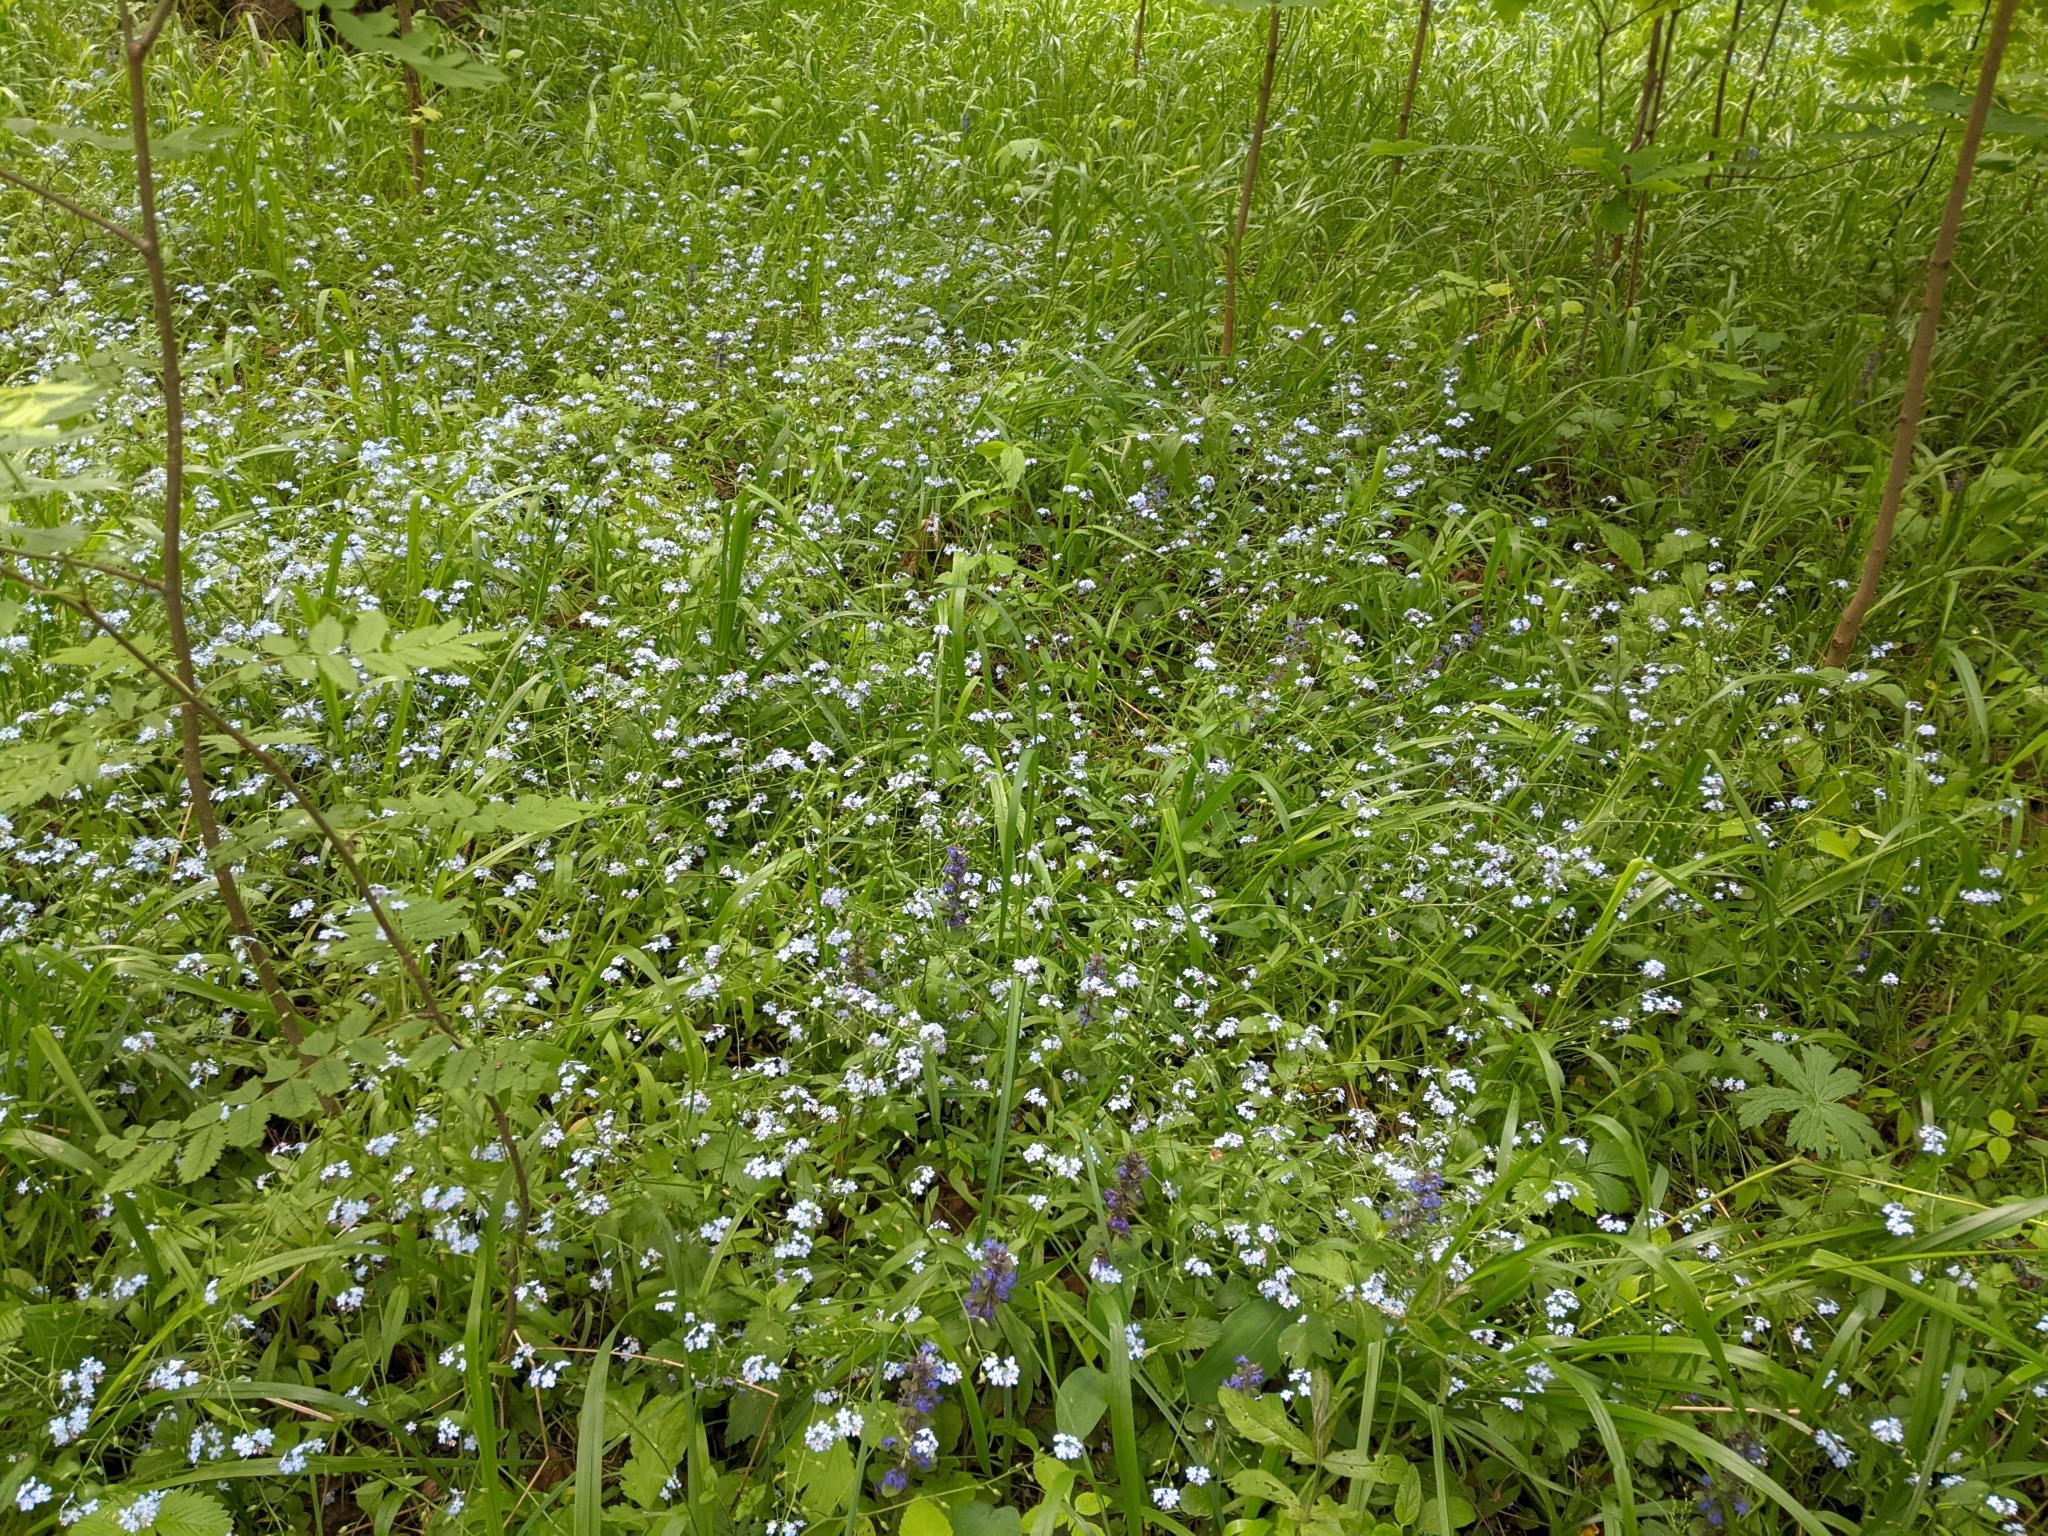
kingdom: Plantae
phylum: Tracheophyta
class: Magnoliopsida
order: Boraginales
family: Boraginaceae
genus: Myosotis
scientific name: Myosotis sylvatica
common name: Wood forget-me-not
